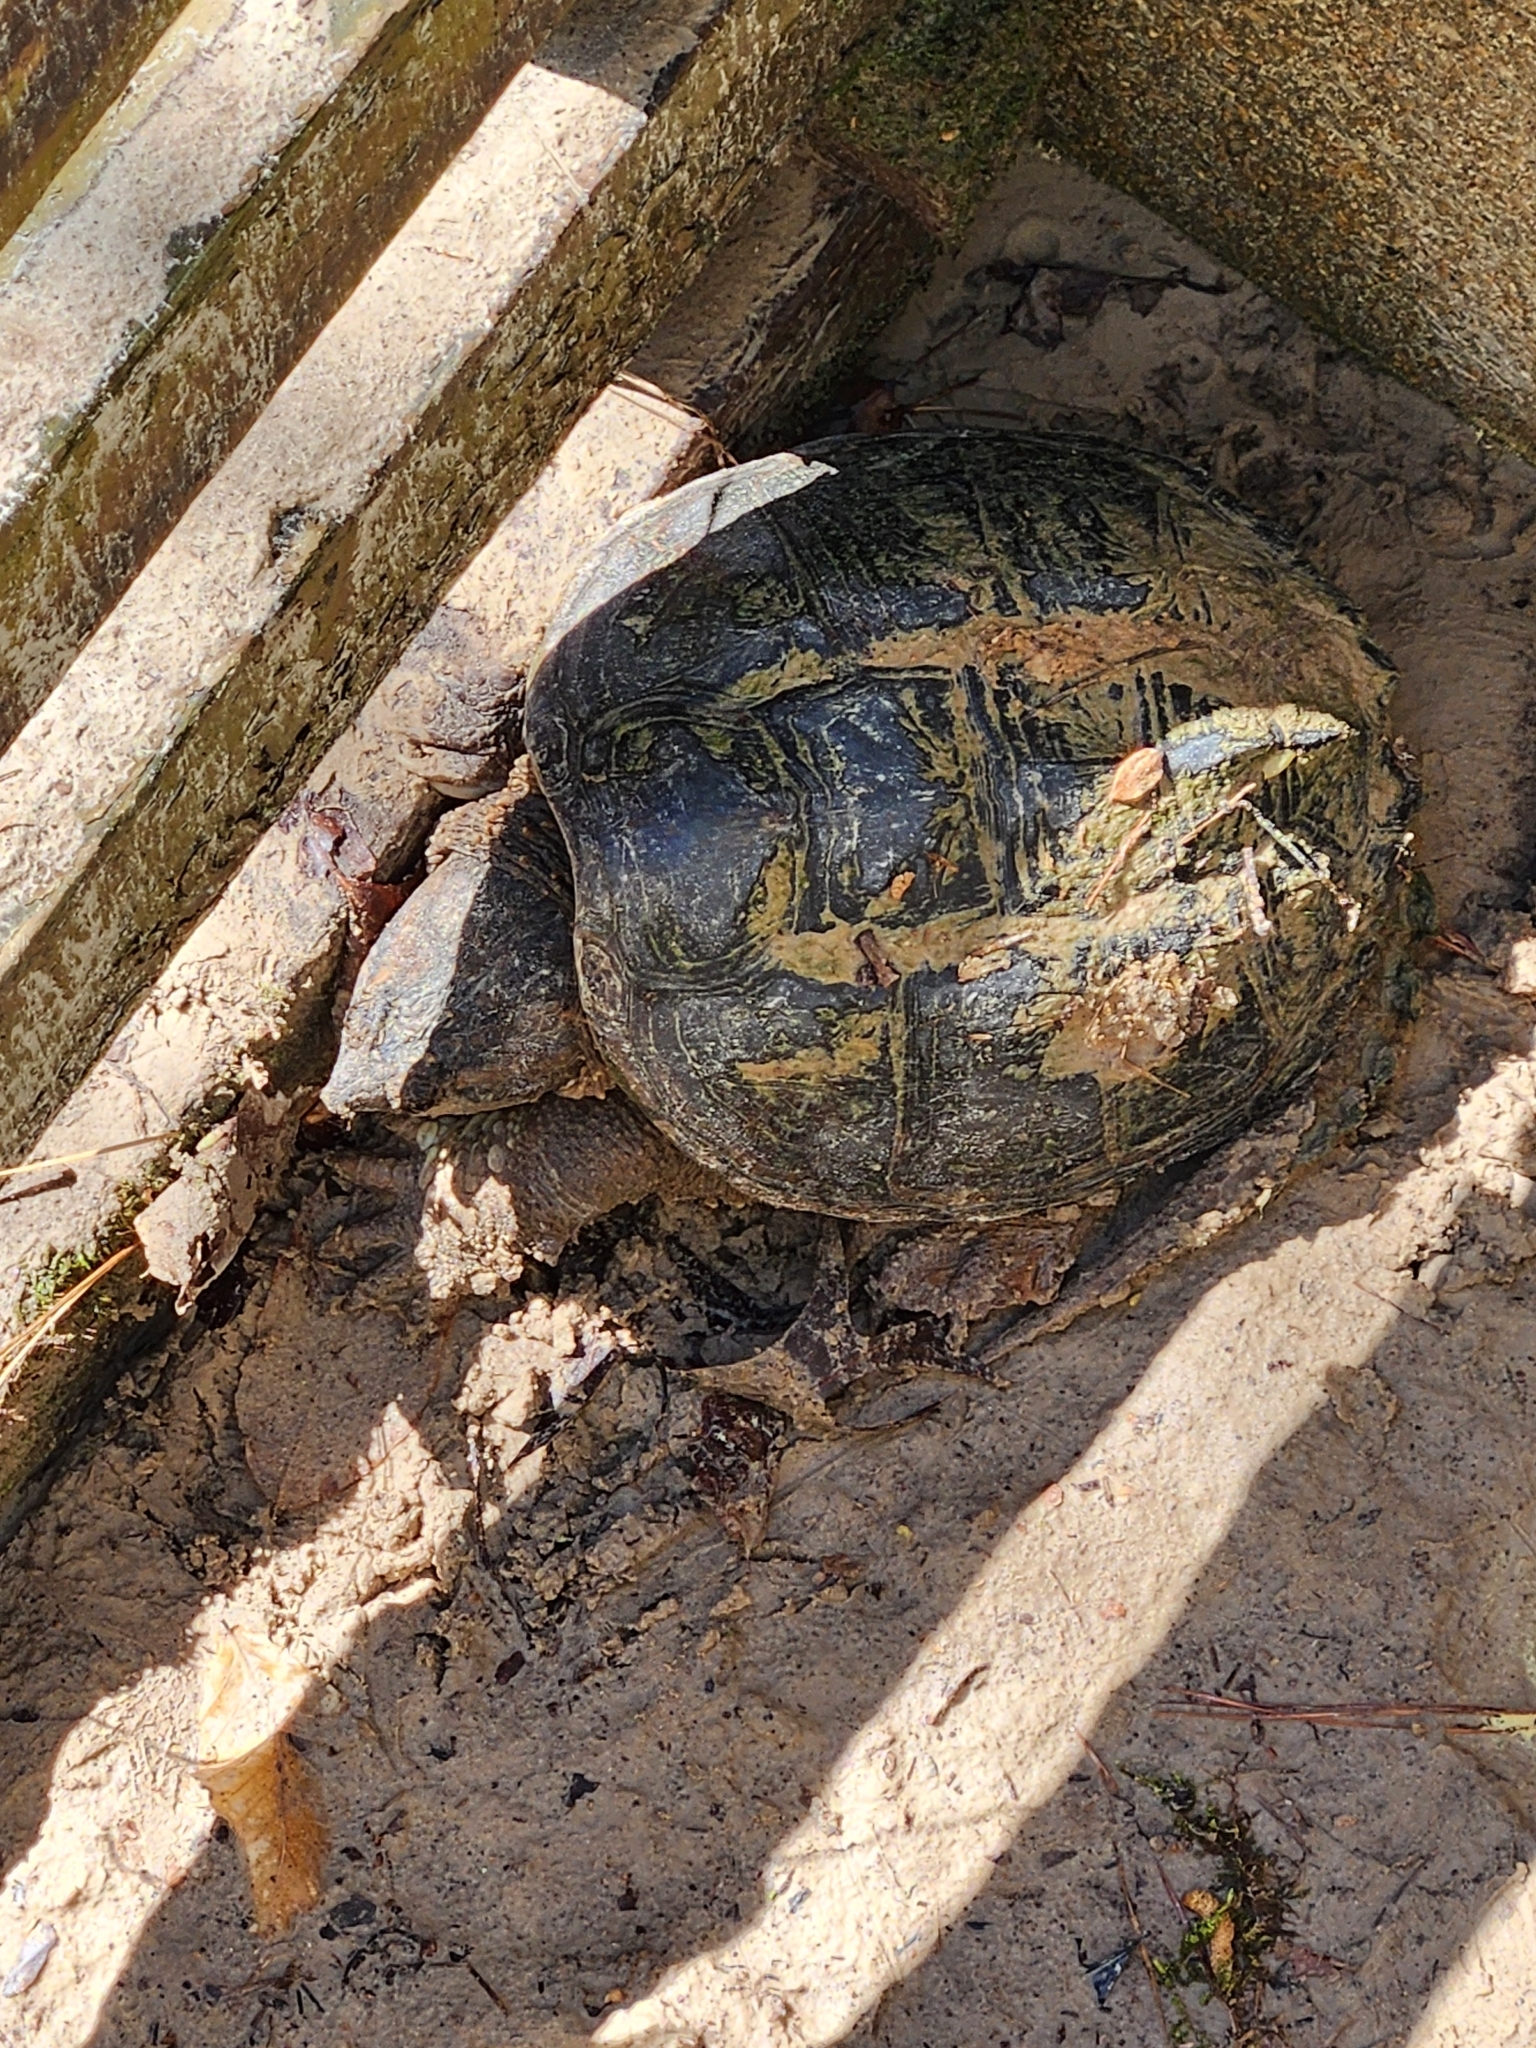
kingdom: Animalia
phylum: Chordata
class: Testudines
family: Chelydridae
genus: Chelydra
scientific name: Chelydra serpentina
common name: Common snapping turtle
